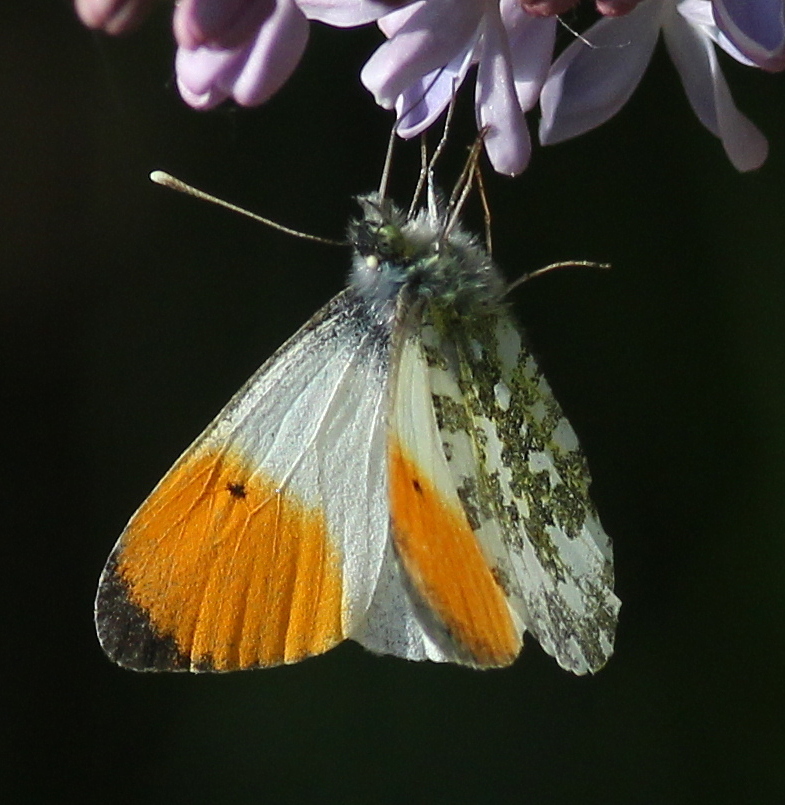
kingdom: Animalia
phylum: Arthropoda
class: Insecta
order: Lepidoptera
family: Pieridae
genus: Anthocharis
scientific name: Anthocharis cardamines
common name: Orange-tip
